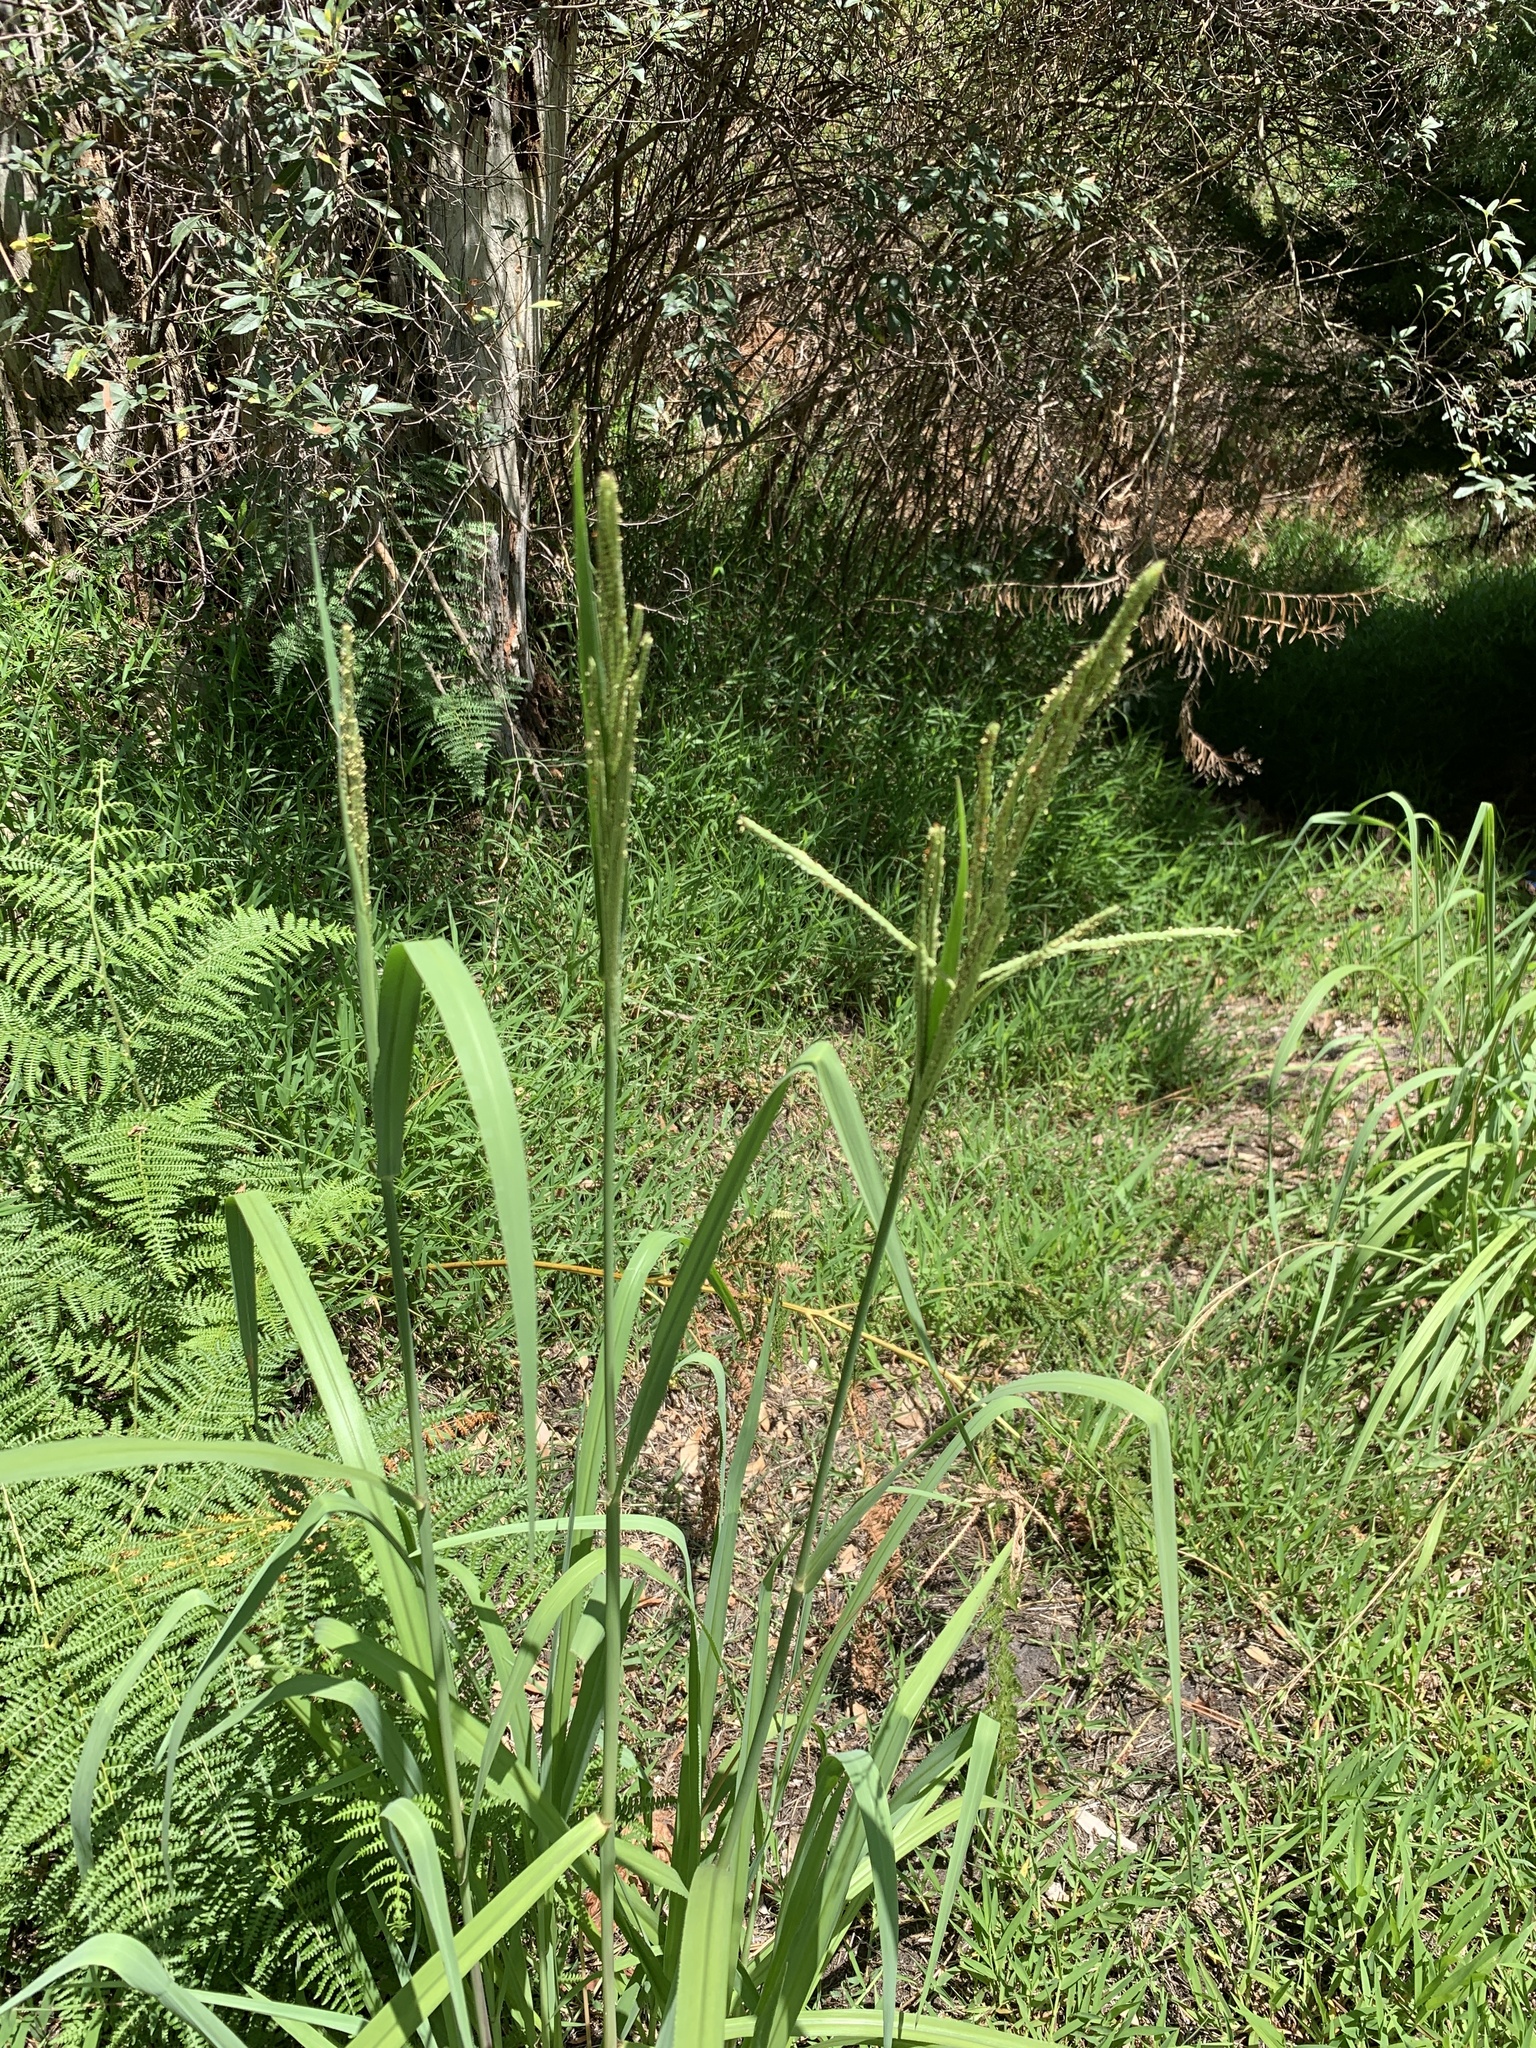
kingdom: Plantae
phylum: Tracheophyta
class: Liliopsida
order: Poales
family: Poaceae
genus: Paspalum
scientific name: Paspalum urvillei
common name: Vasey's grass
